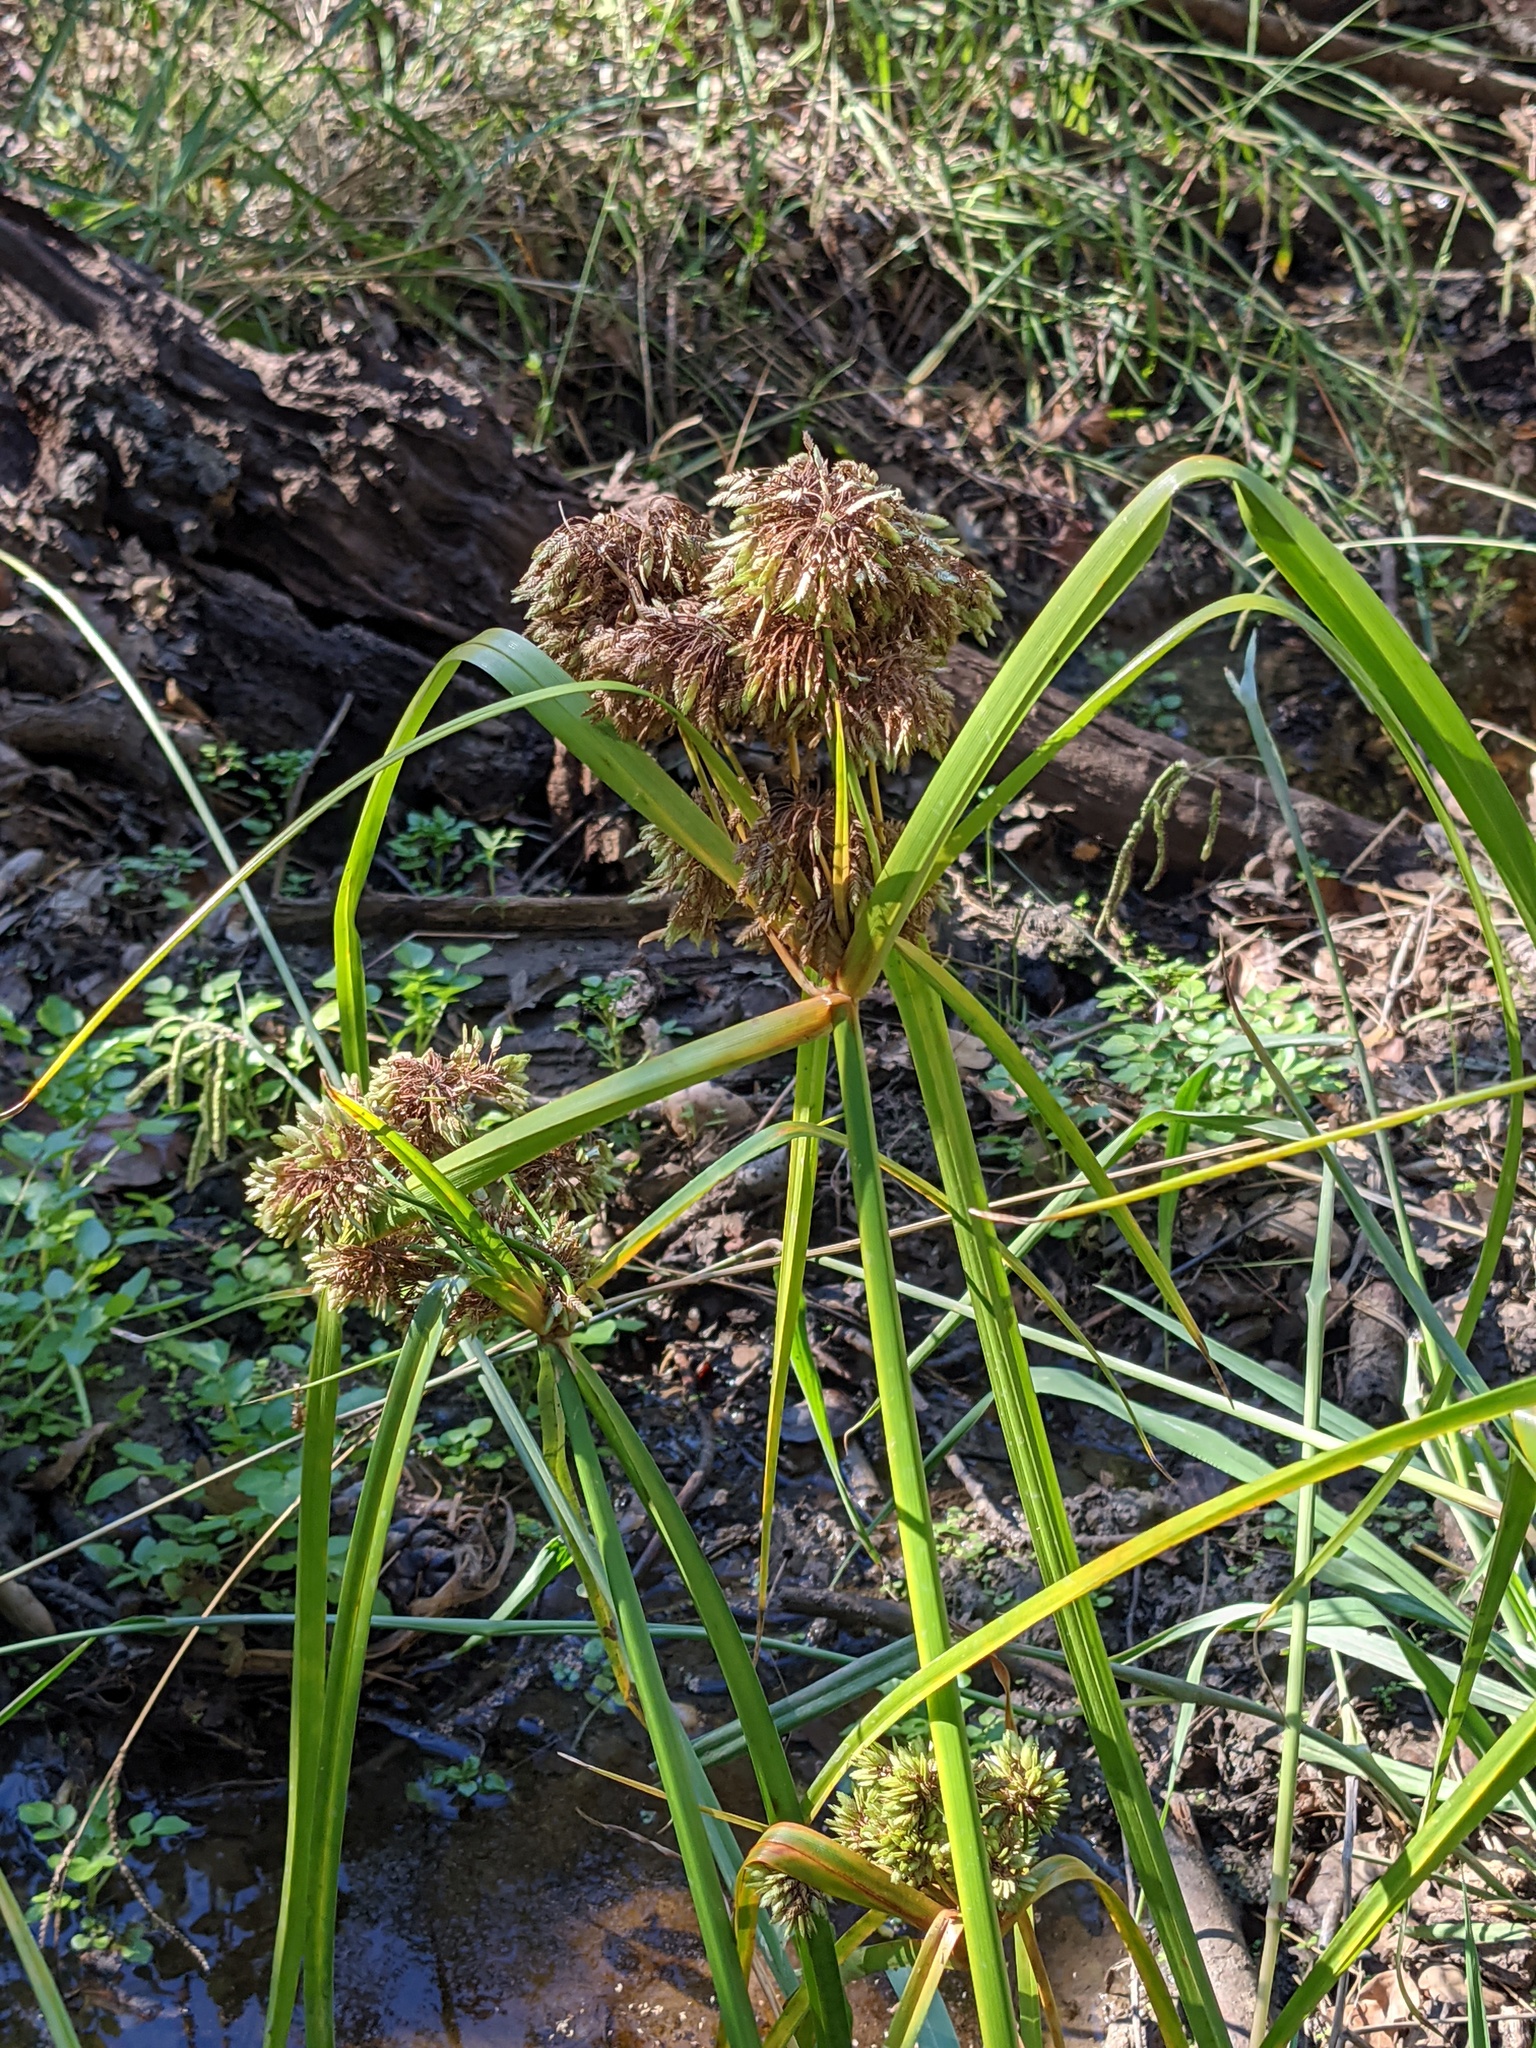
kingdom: Plantae
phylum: Tracheophyta
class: Liliopsida
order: Poales
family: Cyperaceae
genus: Cyperus
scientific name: Cyperus eragrostis
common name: Tall flatsedge
